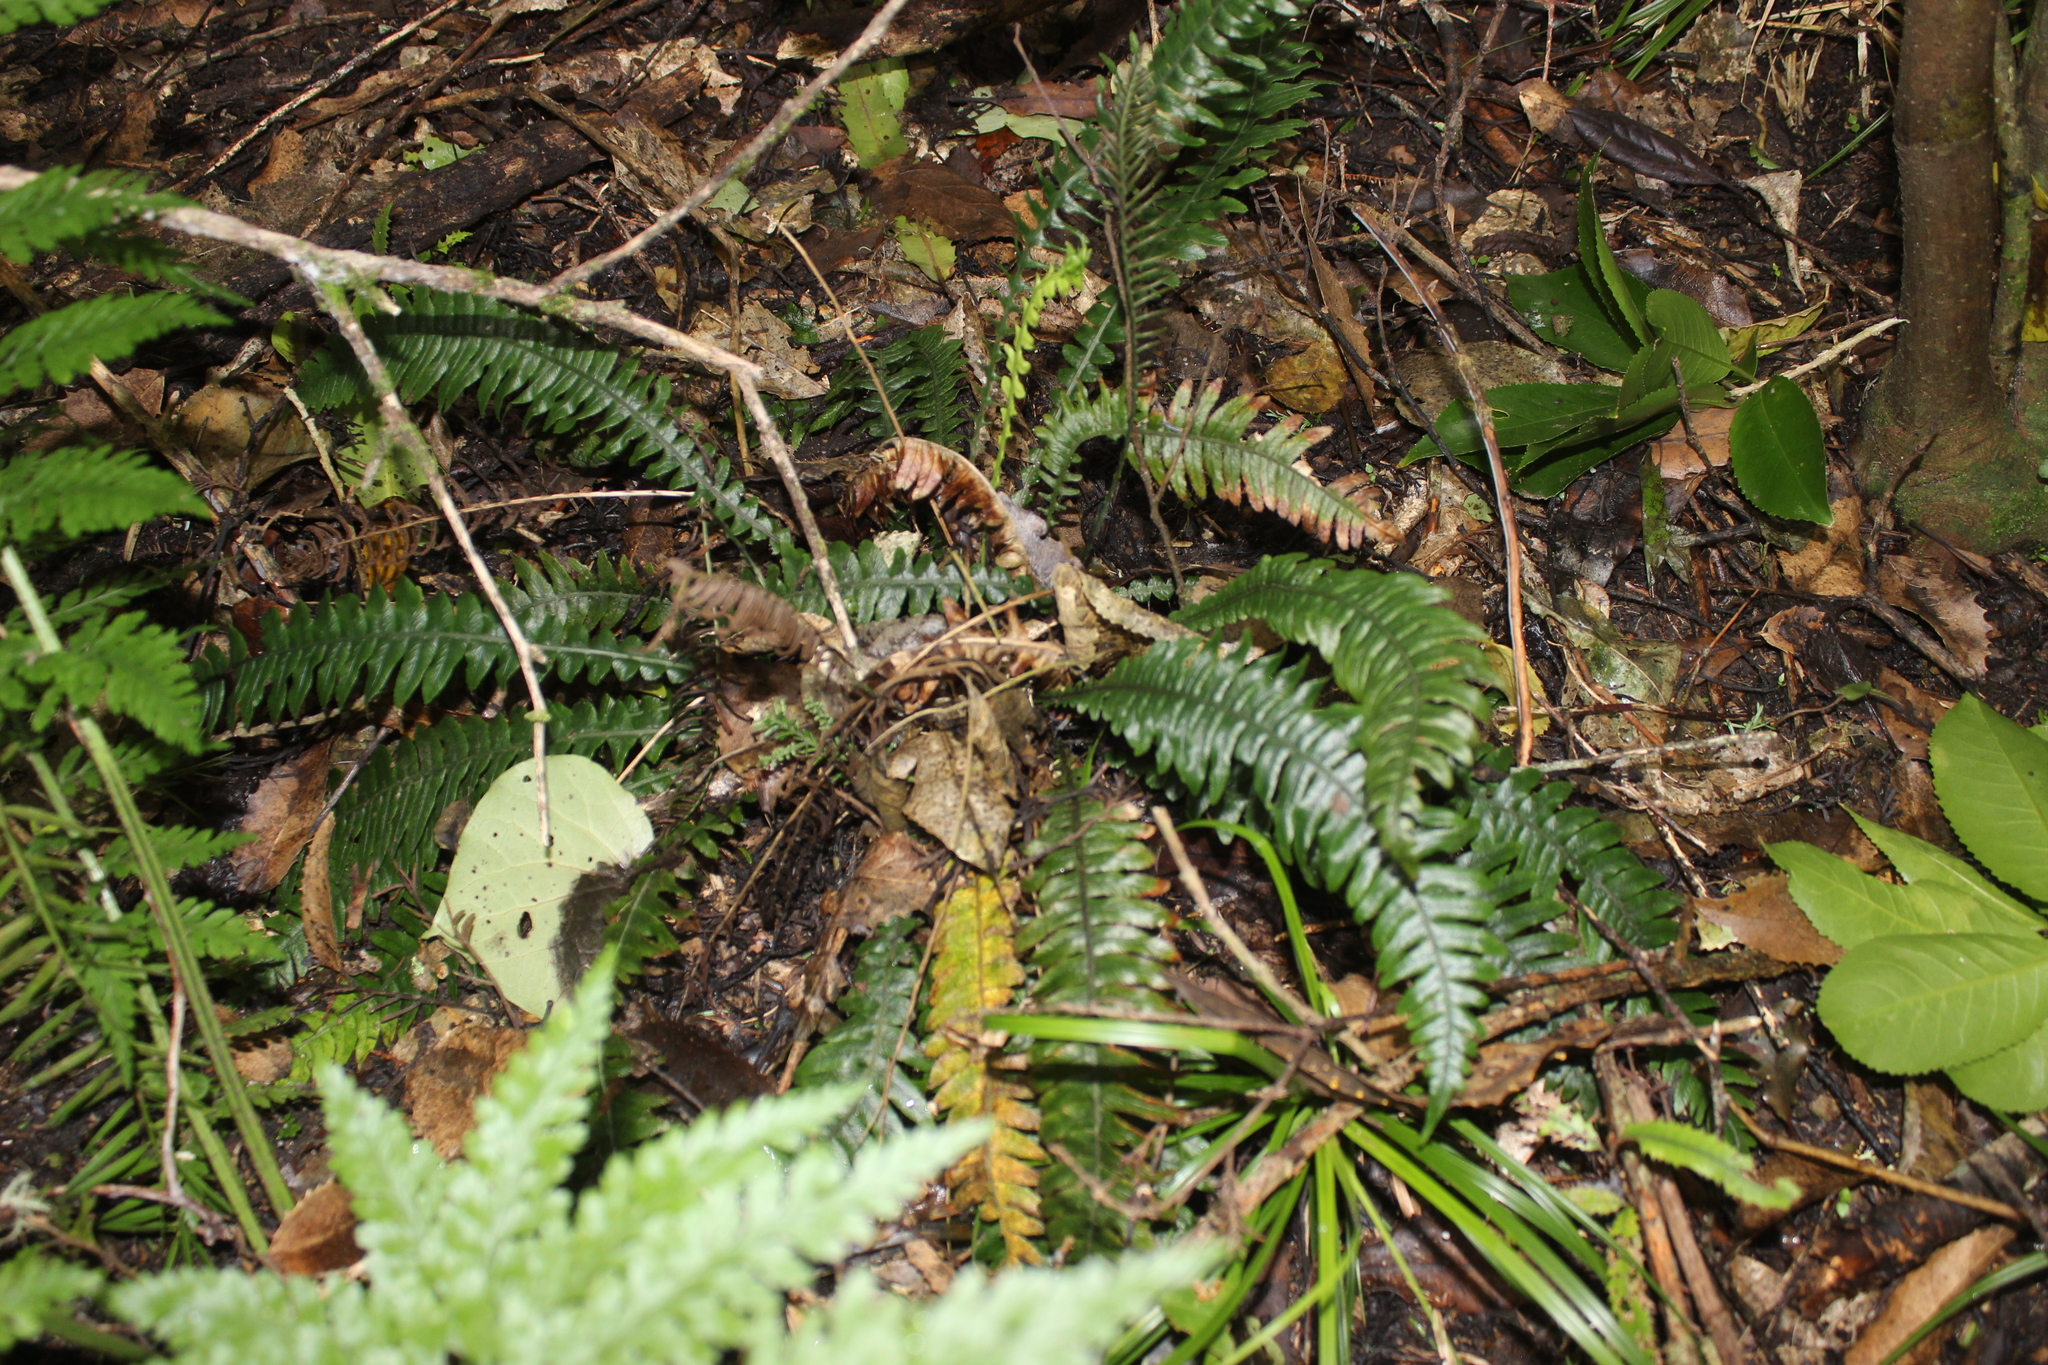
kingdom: Plantae
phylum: Tracheophyta
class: Polypodiopsida
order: Polypodiales
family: Blechnaceae
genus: Austroblechnum
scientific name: Austroblechnum lanceolatum
